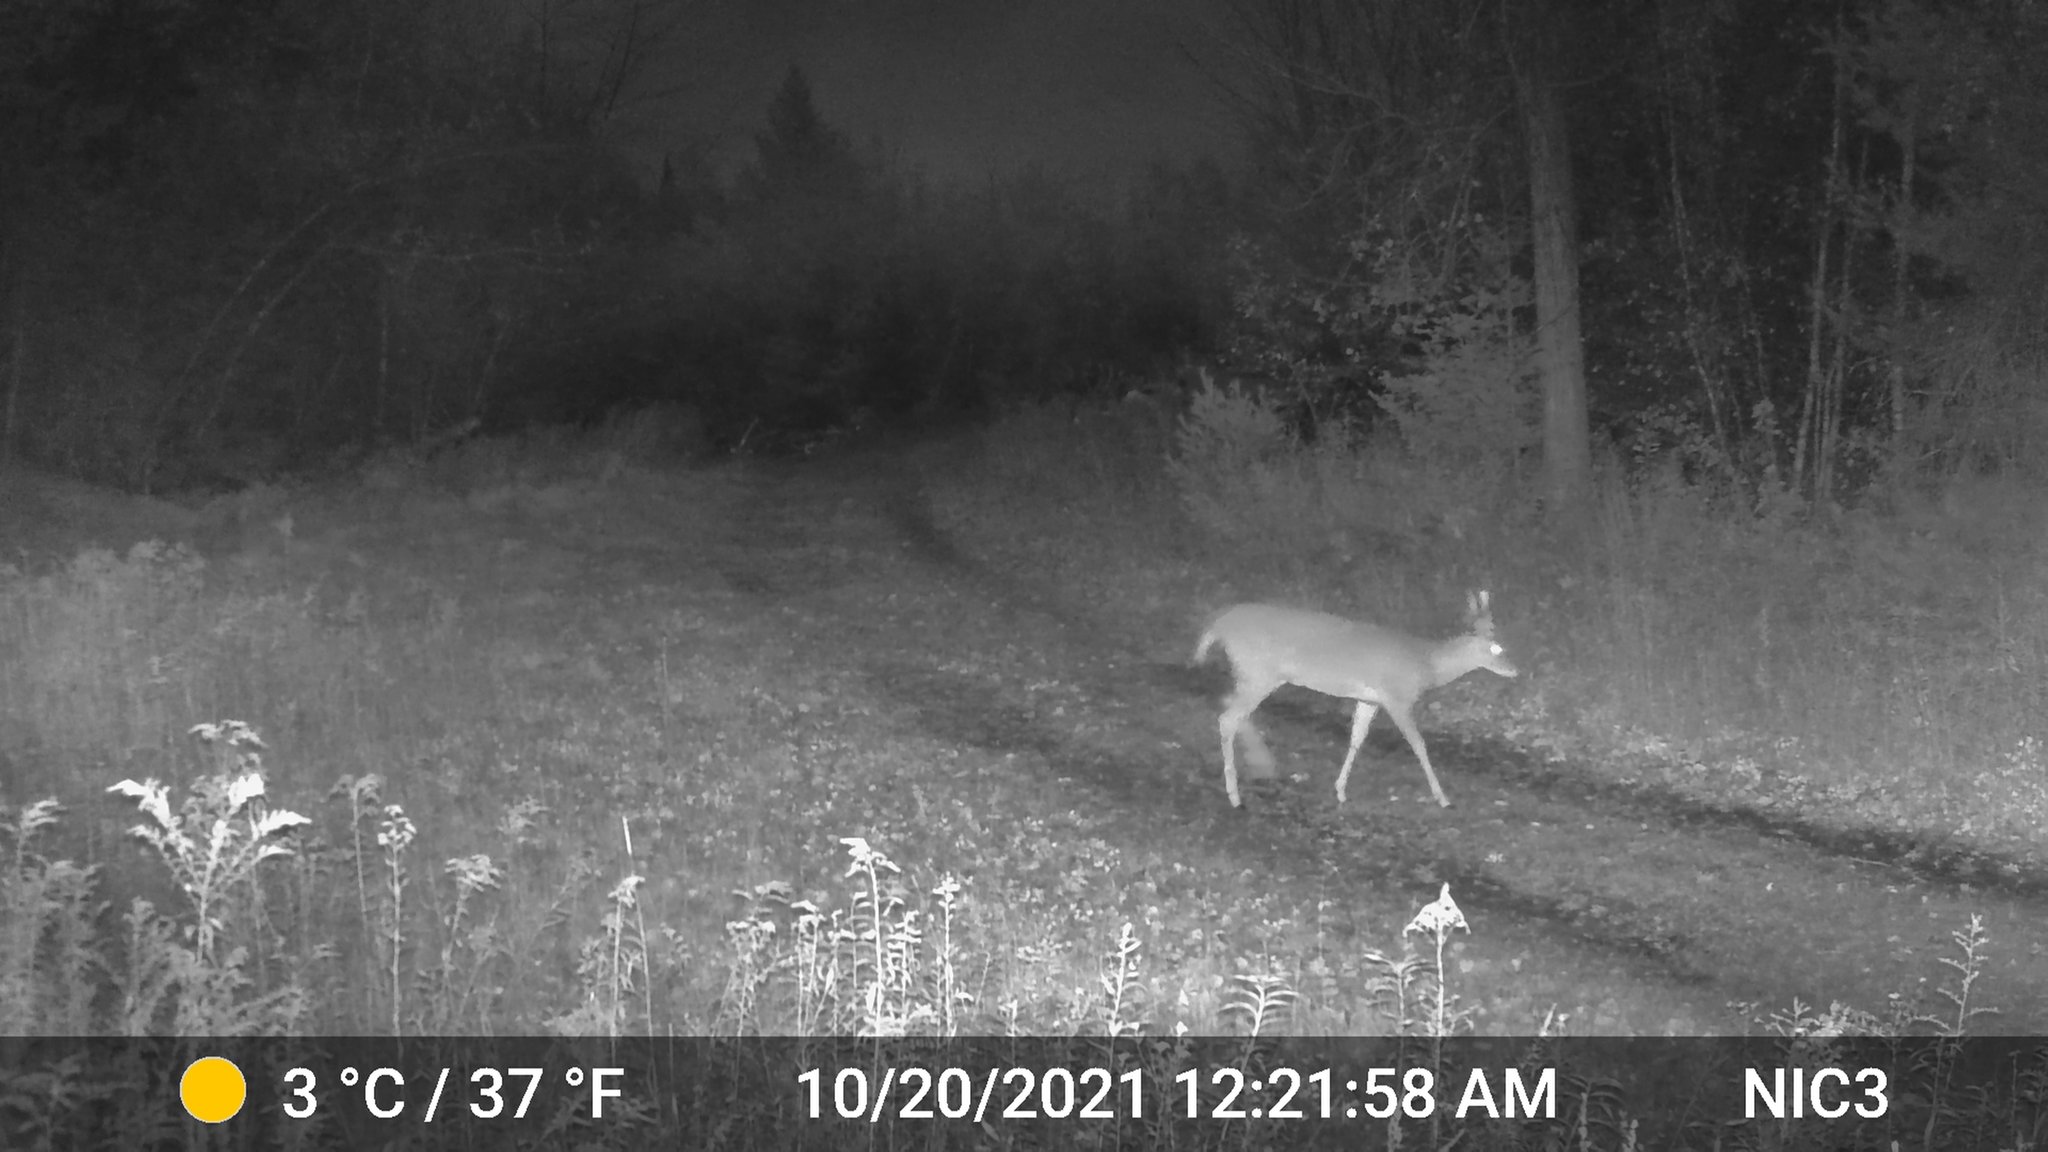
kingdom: Animalia
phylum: Chordata
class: Mammalia
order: Artiodactyla
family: Cervidae
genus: Odocoileus
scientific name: Odocoileus virginianus
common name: White-tailed deer
